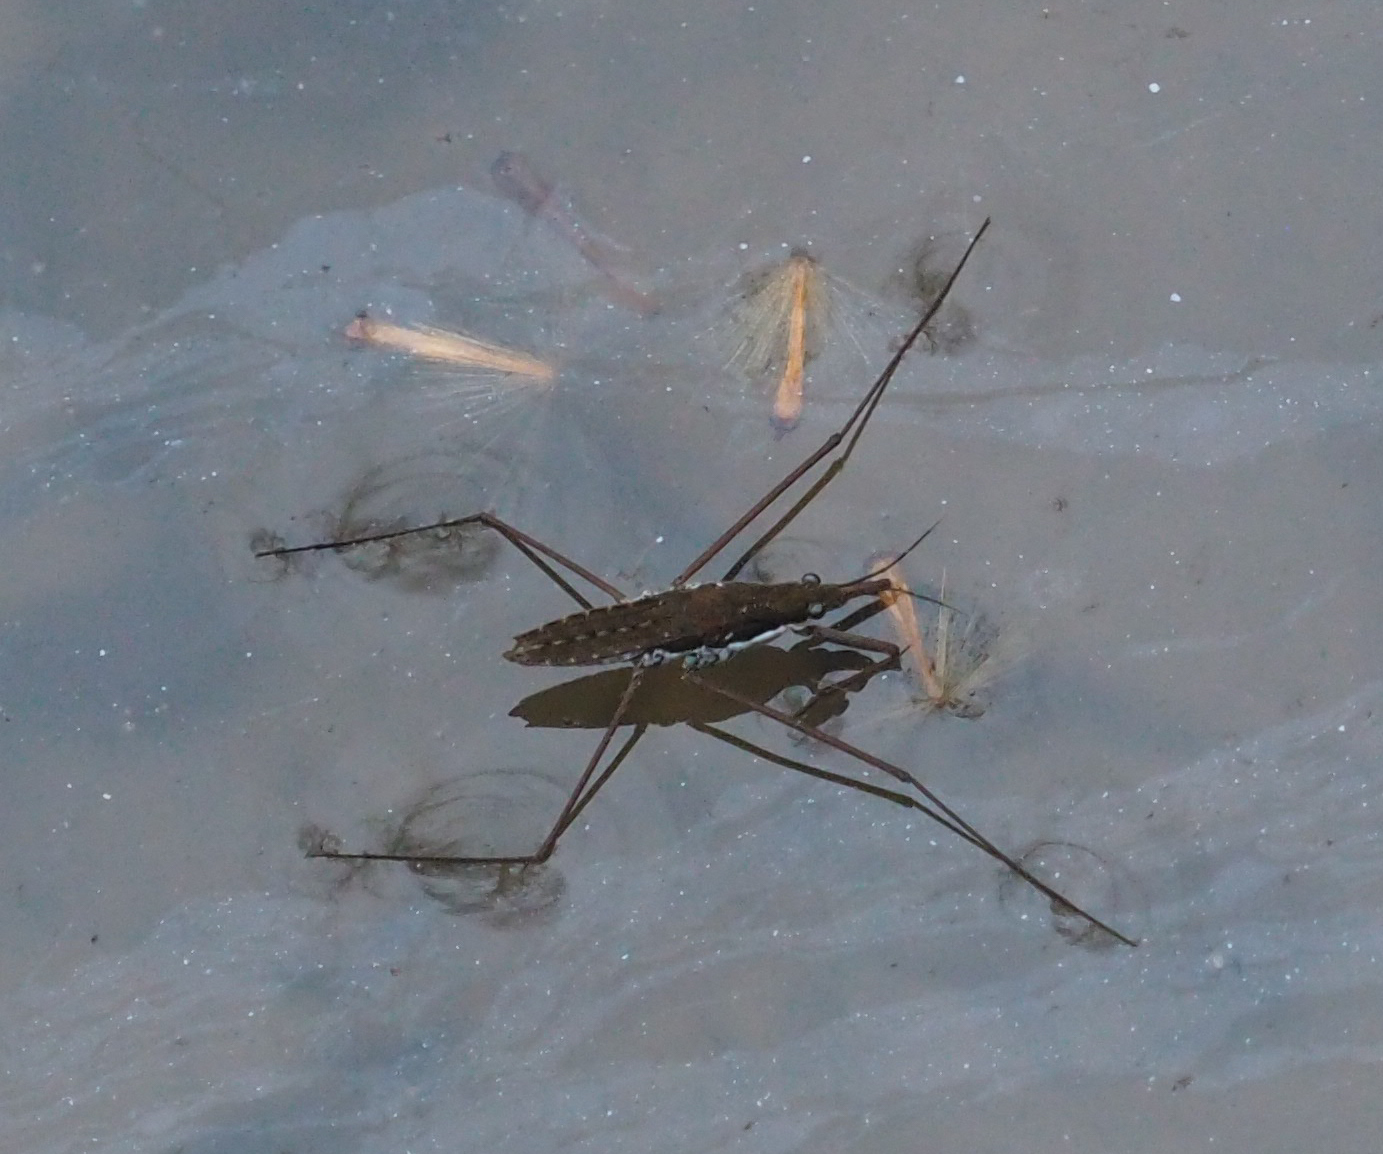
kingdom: Animalia
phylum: Arthropoda
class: Insecta
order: Hemiptera
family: Gerridae
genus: Aquarius
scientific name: Aquarius
